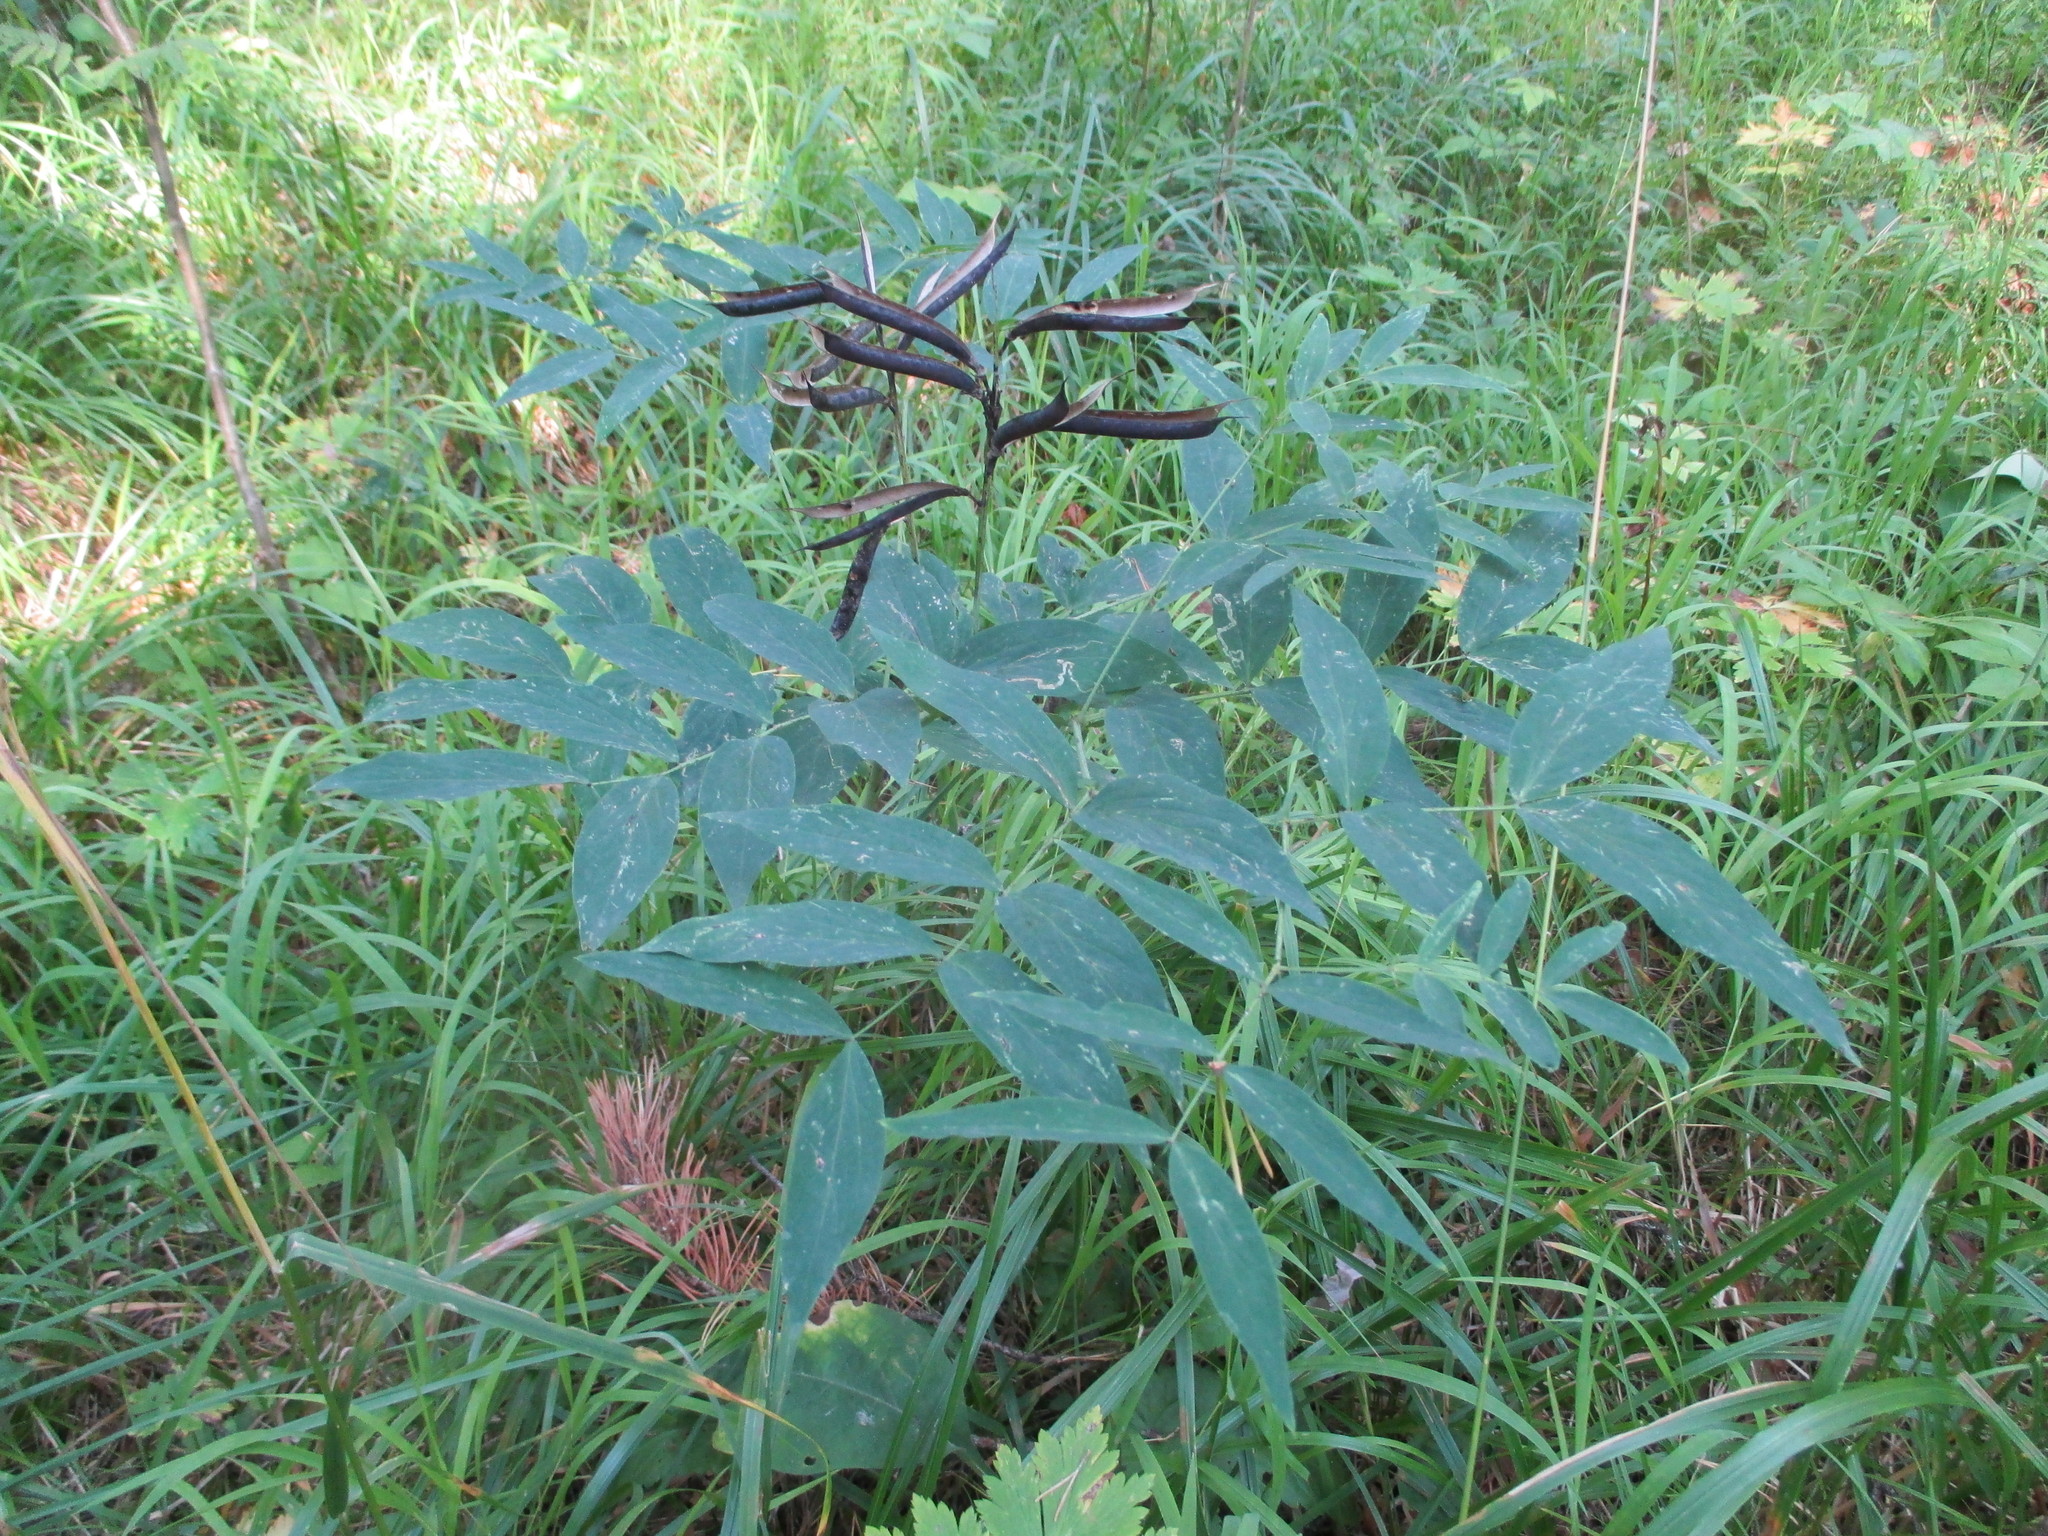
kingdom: Plantae
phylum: Tracheophyta
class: Magnoliopsida
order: Fabales
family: Fabaceae
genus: Lathyrus
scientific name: Lathyrus gmelinii
